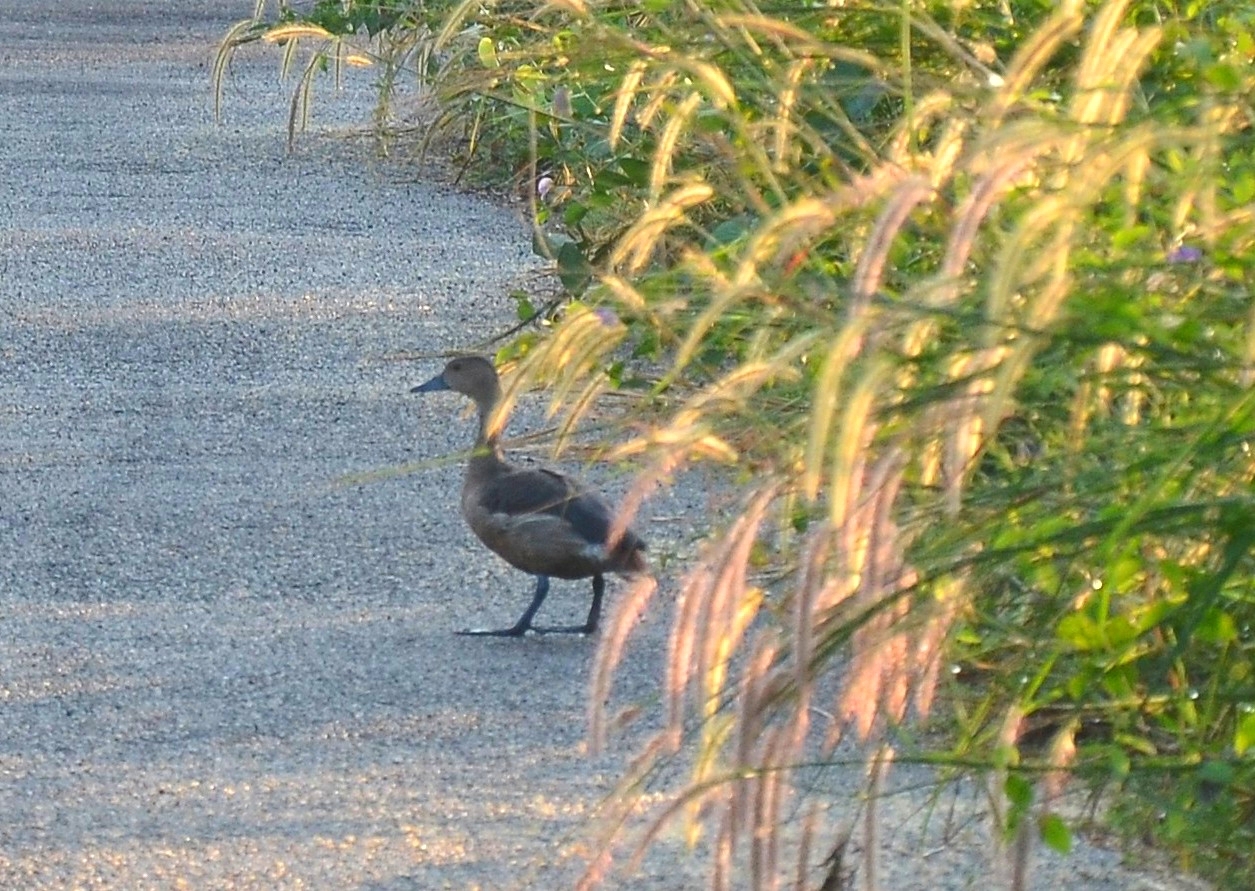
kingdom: Animalia
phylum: Chordata
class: Aves
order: Anseriformes
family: Anatidae
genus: Dendrocygna
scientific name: Dendrocygna javanica
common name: Lesser whistling-duck
